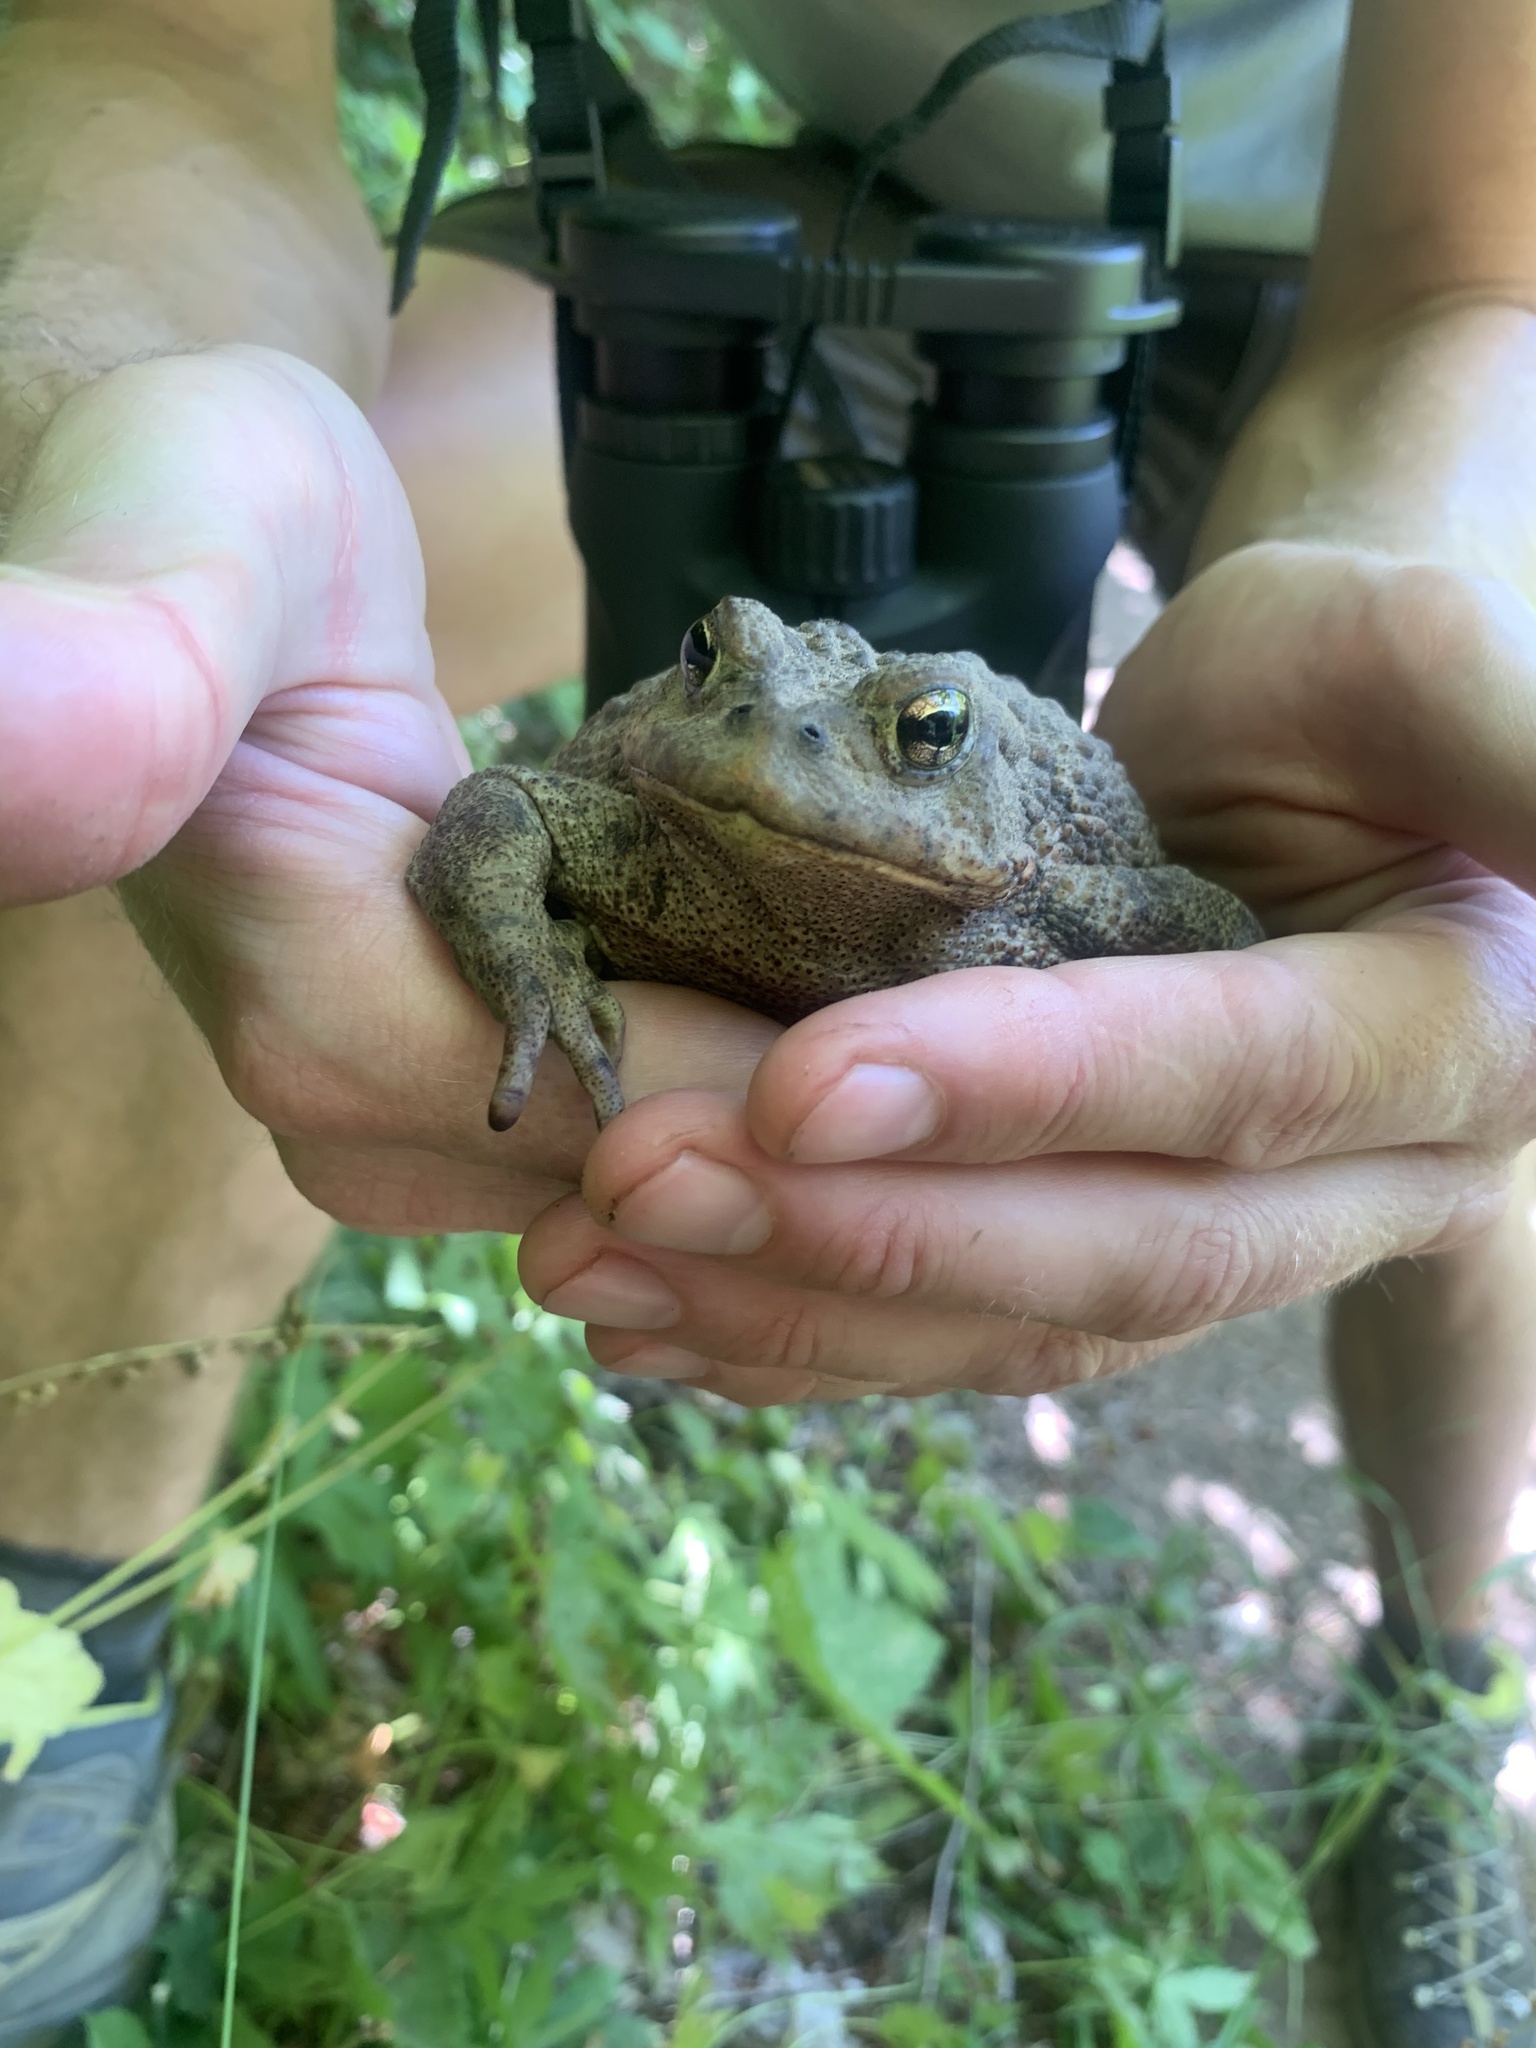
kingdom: Animalia
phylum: Chordata
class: Amphibia
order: Anura
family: Bufonidae
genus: Anaxyrus
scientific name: Anaxyrus boreas
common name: Western toad
